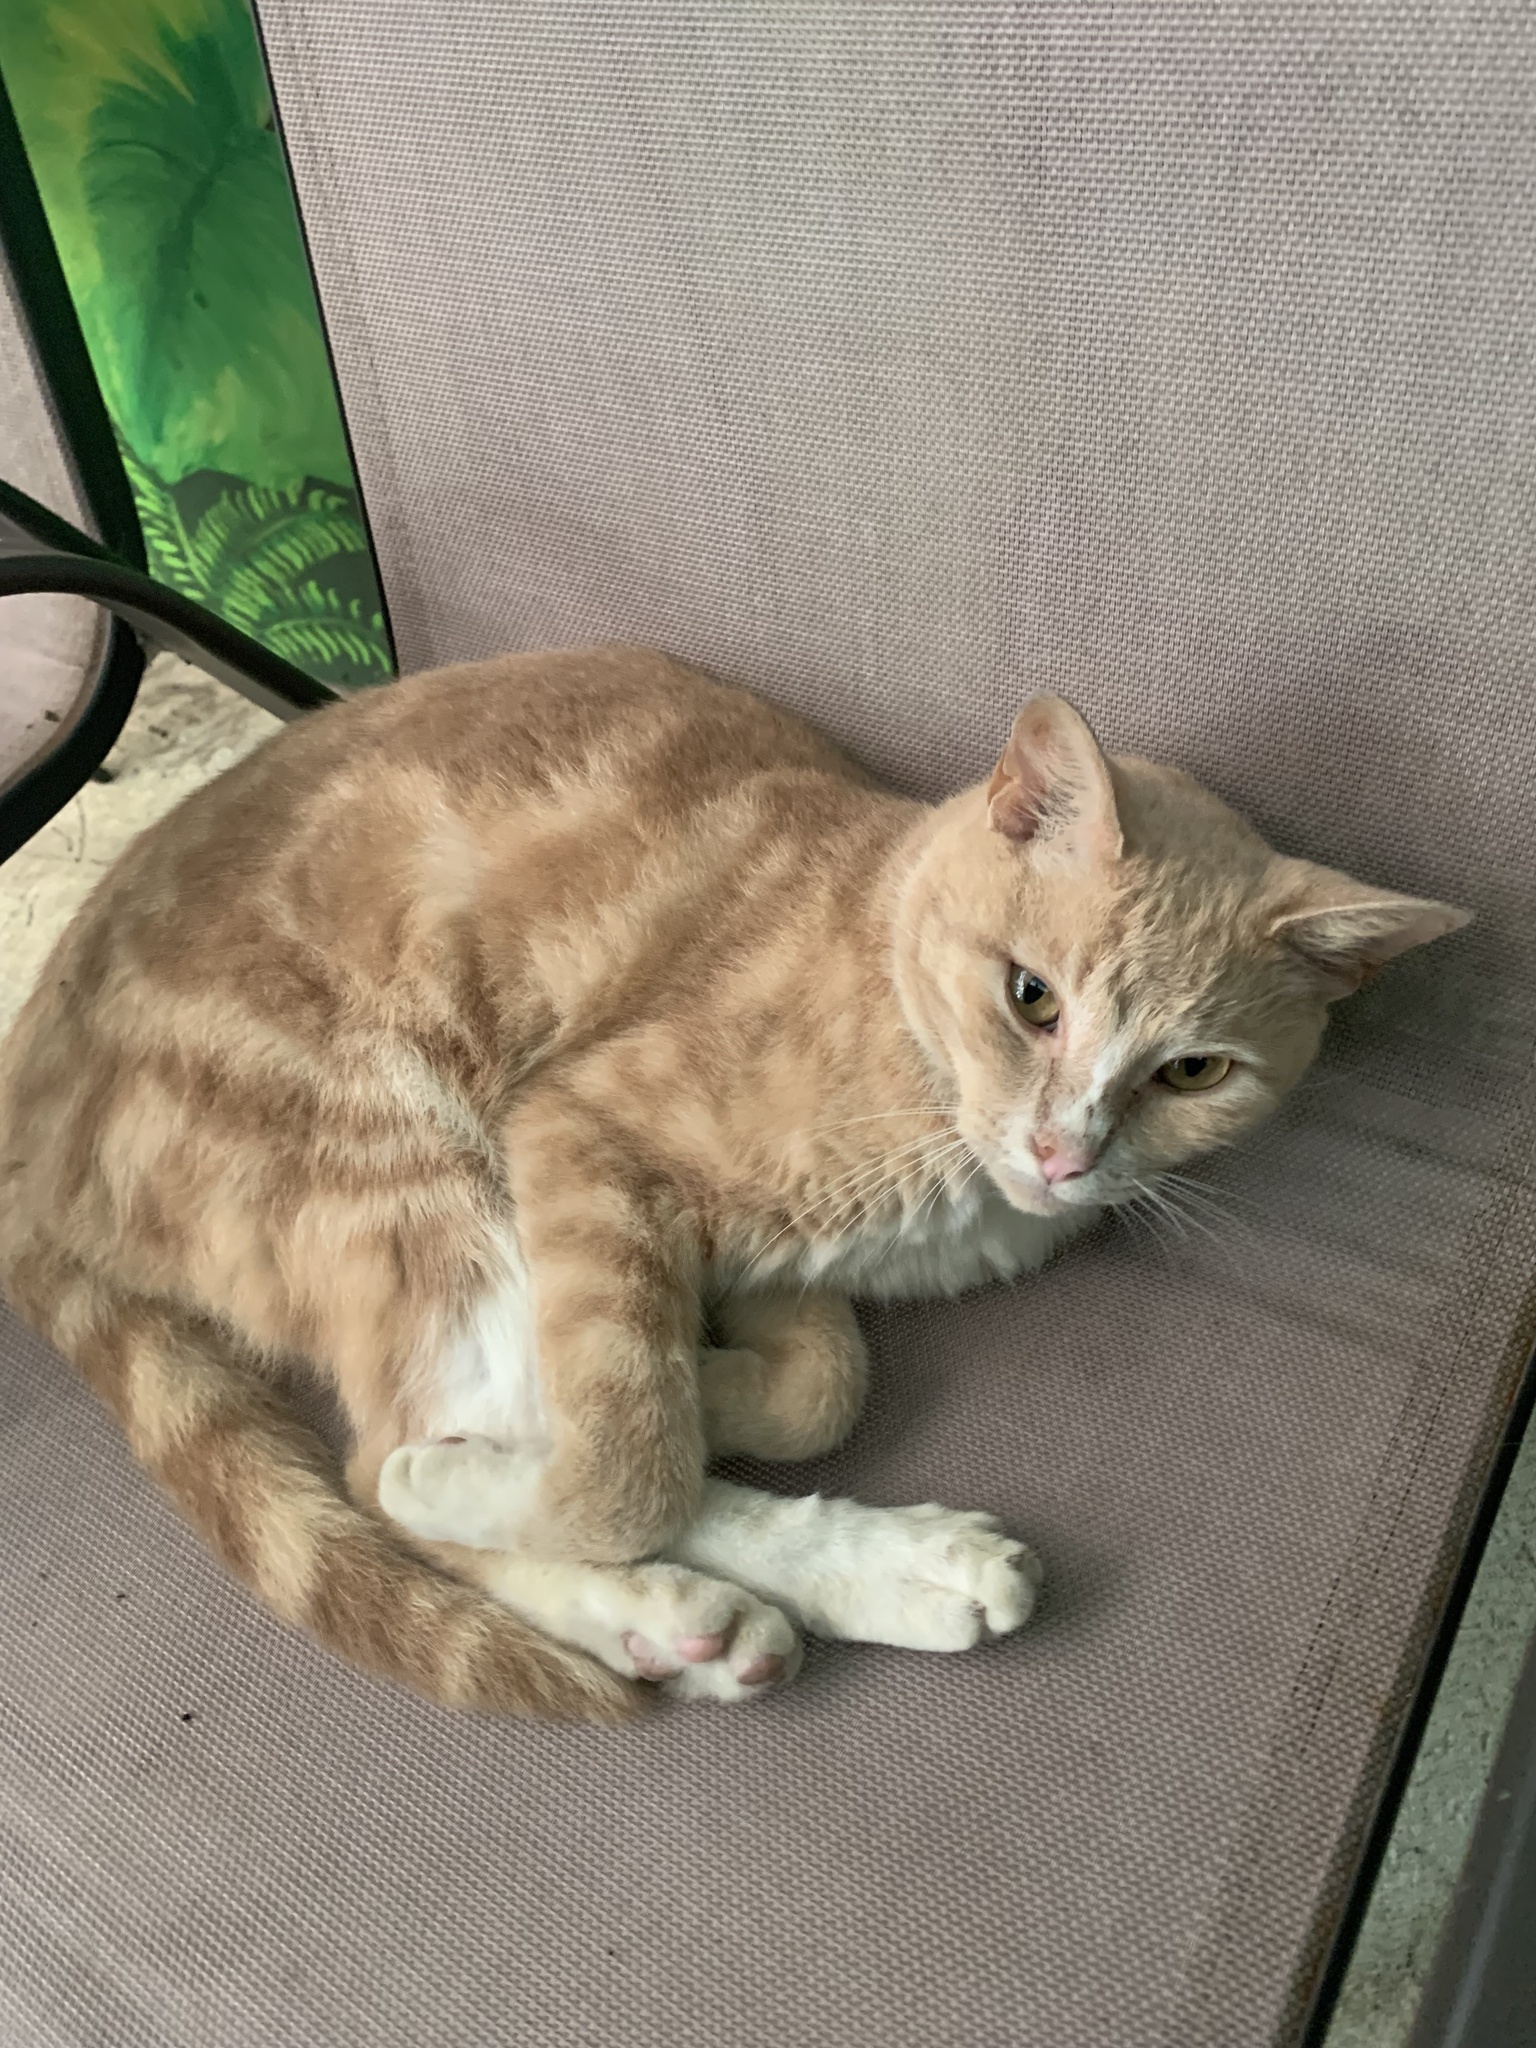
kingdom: Animalia
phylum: Chordata
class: Mammalia
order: Carnivora
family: Felidae
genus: Felis
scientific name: Felis catus
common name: Domestic cat
